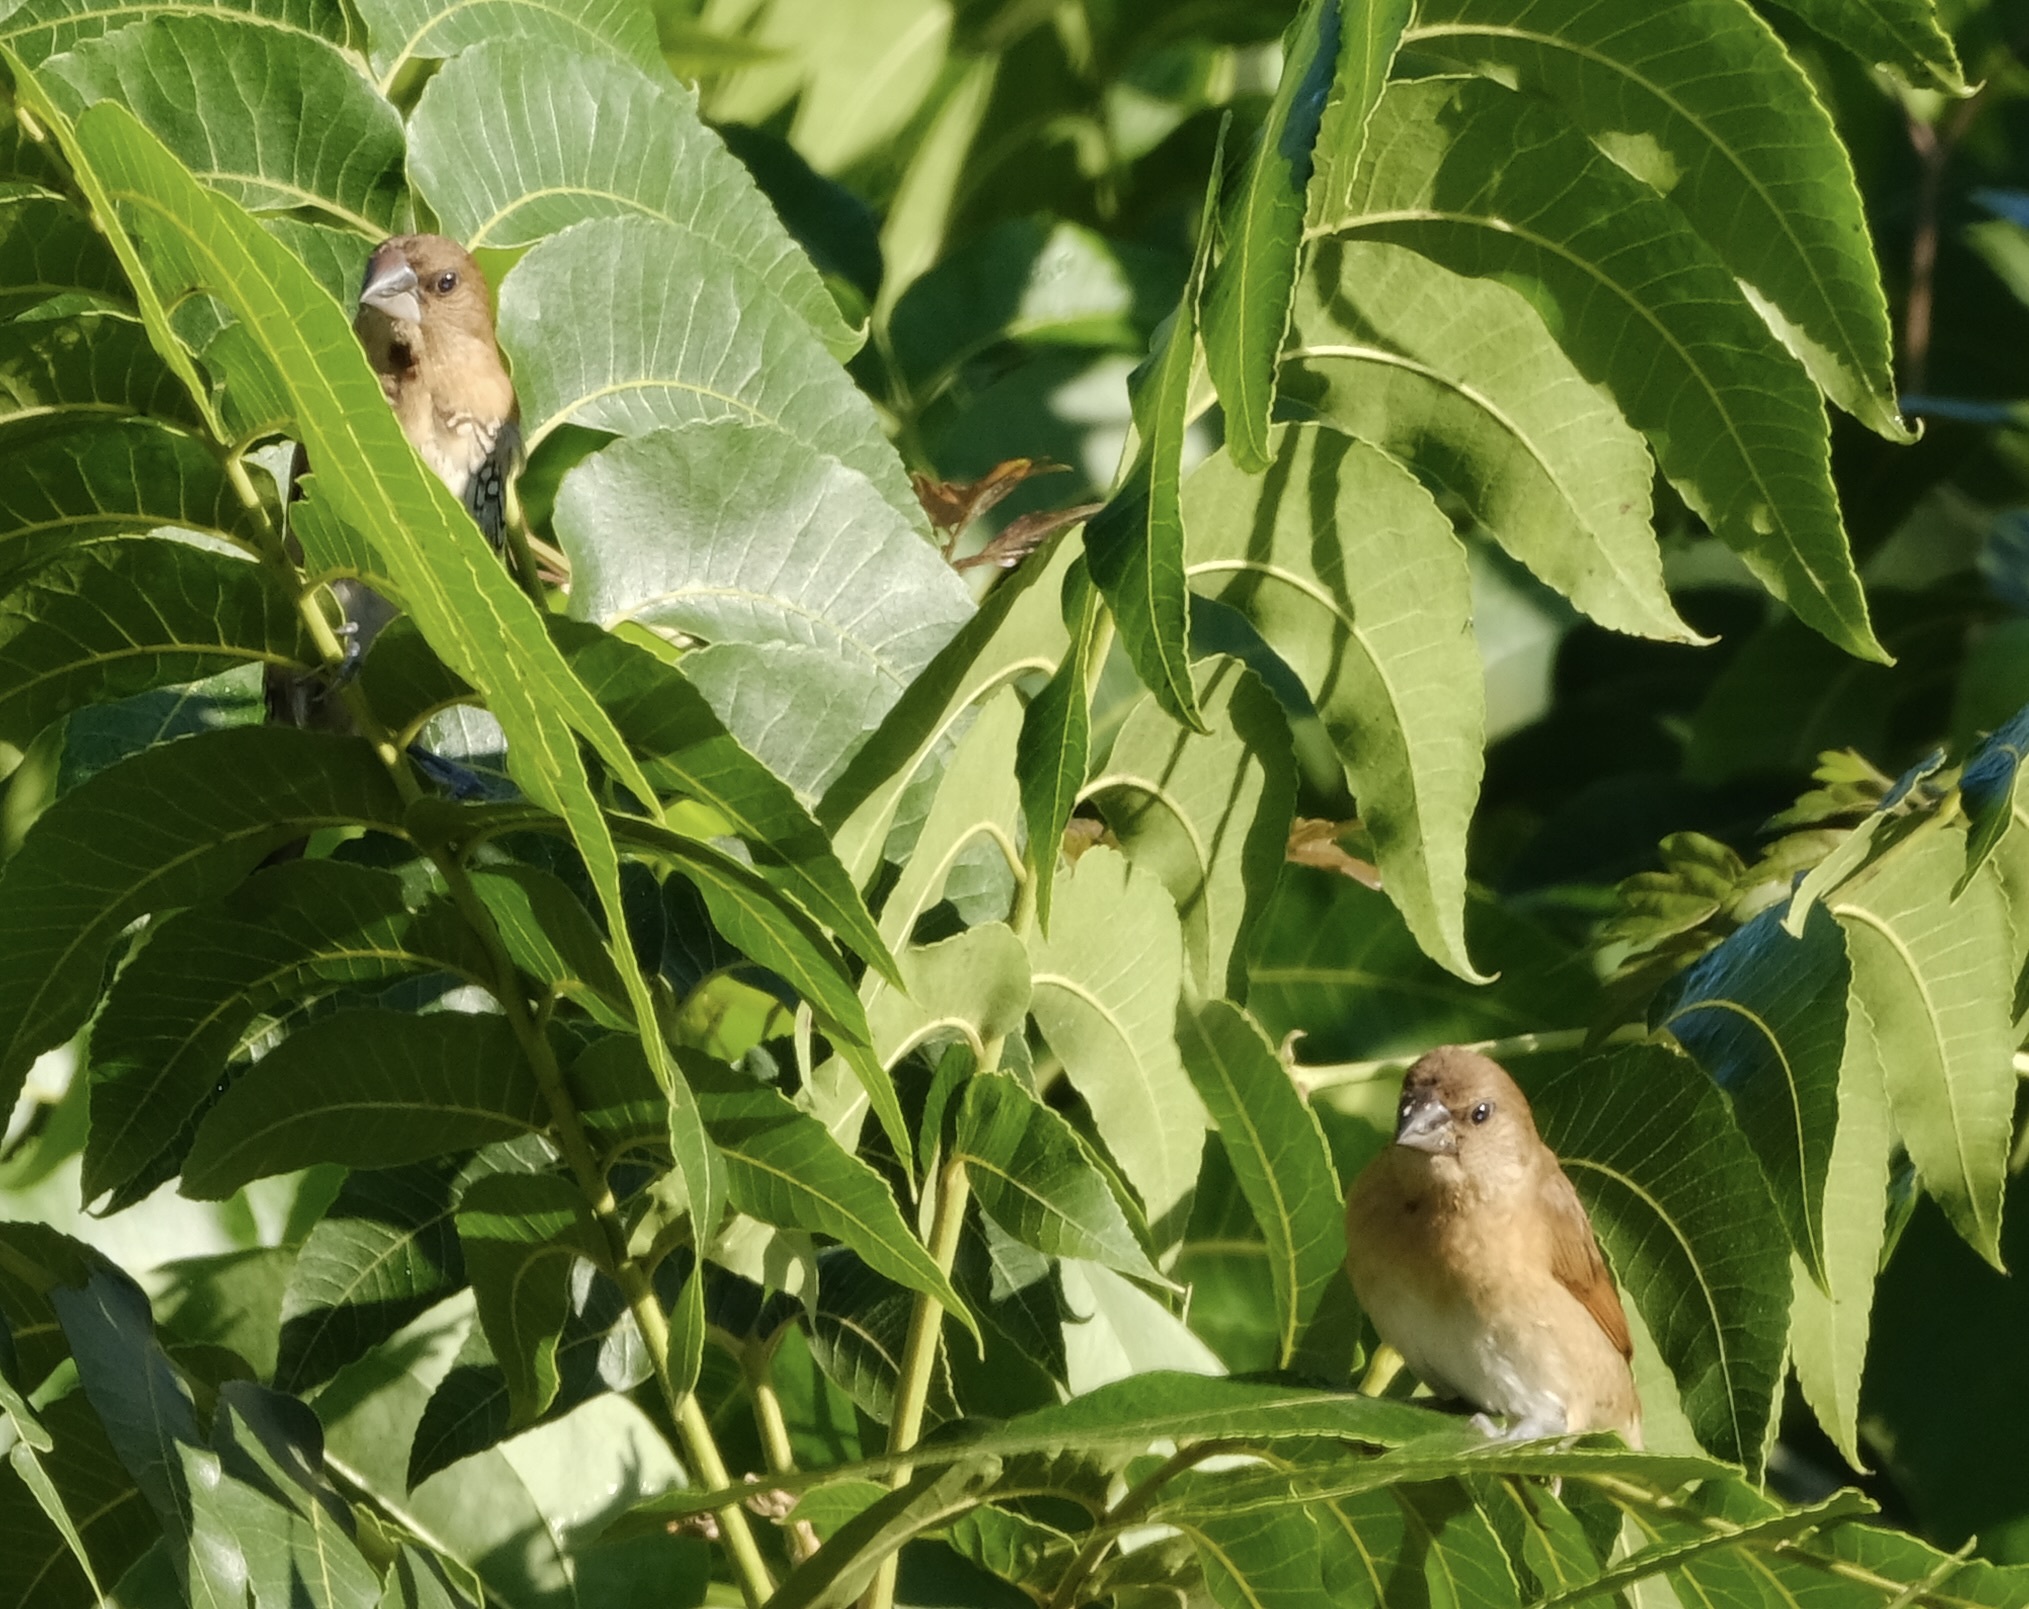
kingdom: Animalia
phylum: Chordata
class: Aves
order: Passeriformes
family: Estrildidae
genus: Lonchura
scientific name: Lonchura punctulata
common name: Scaly-breasted munia
